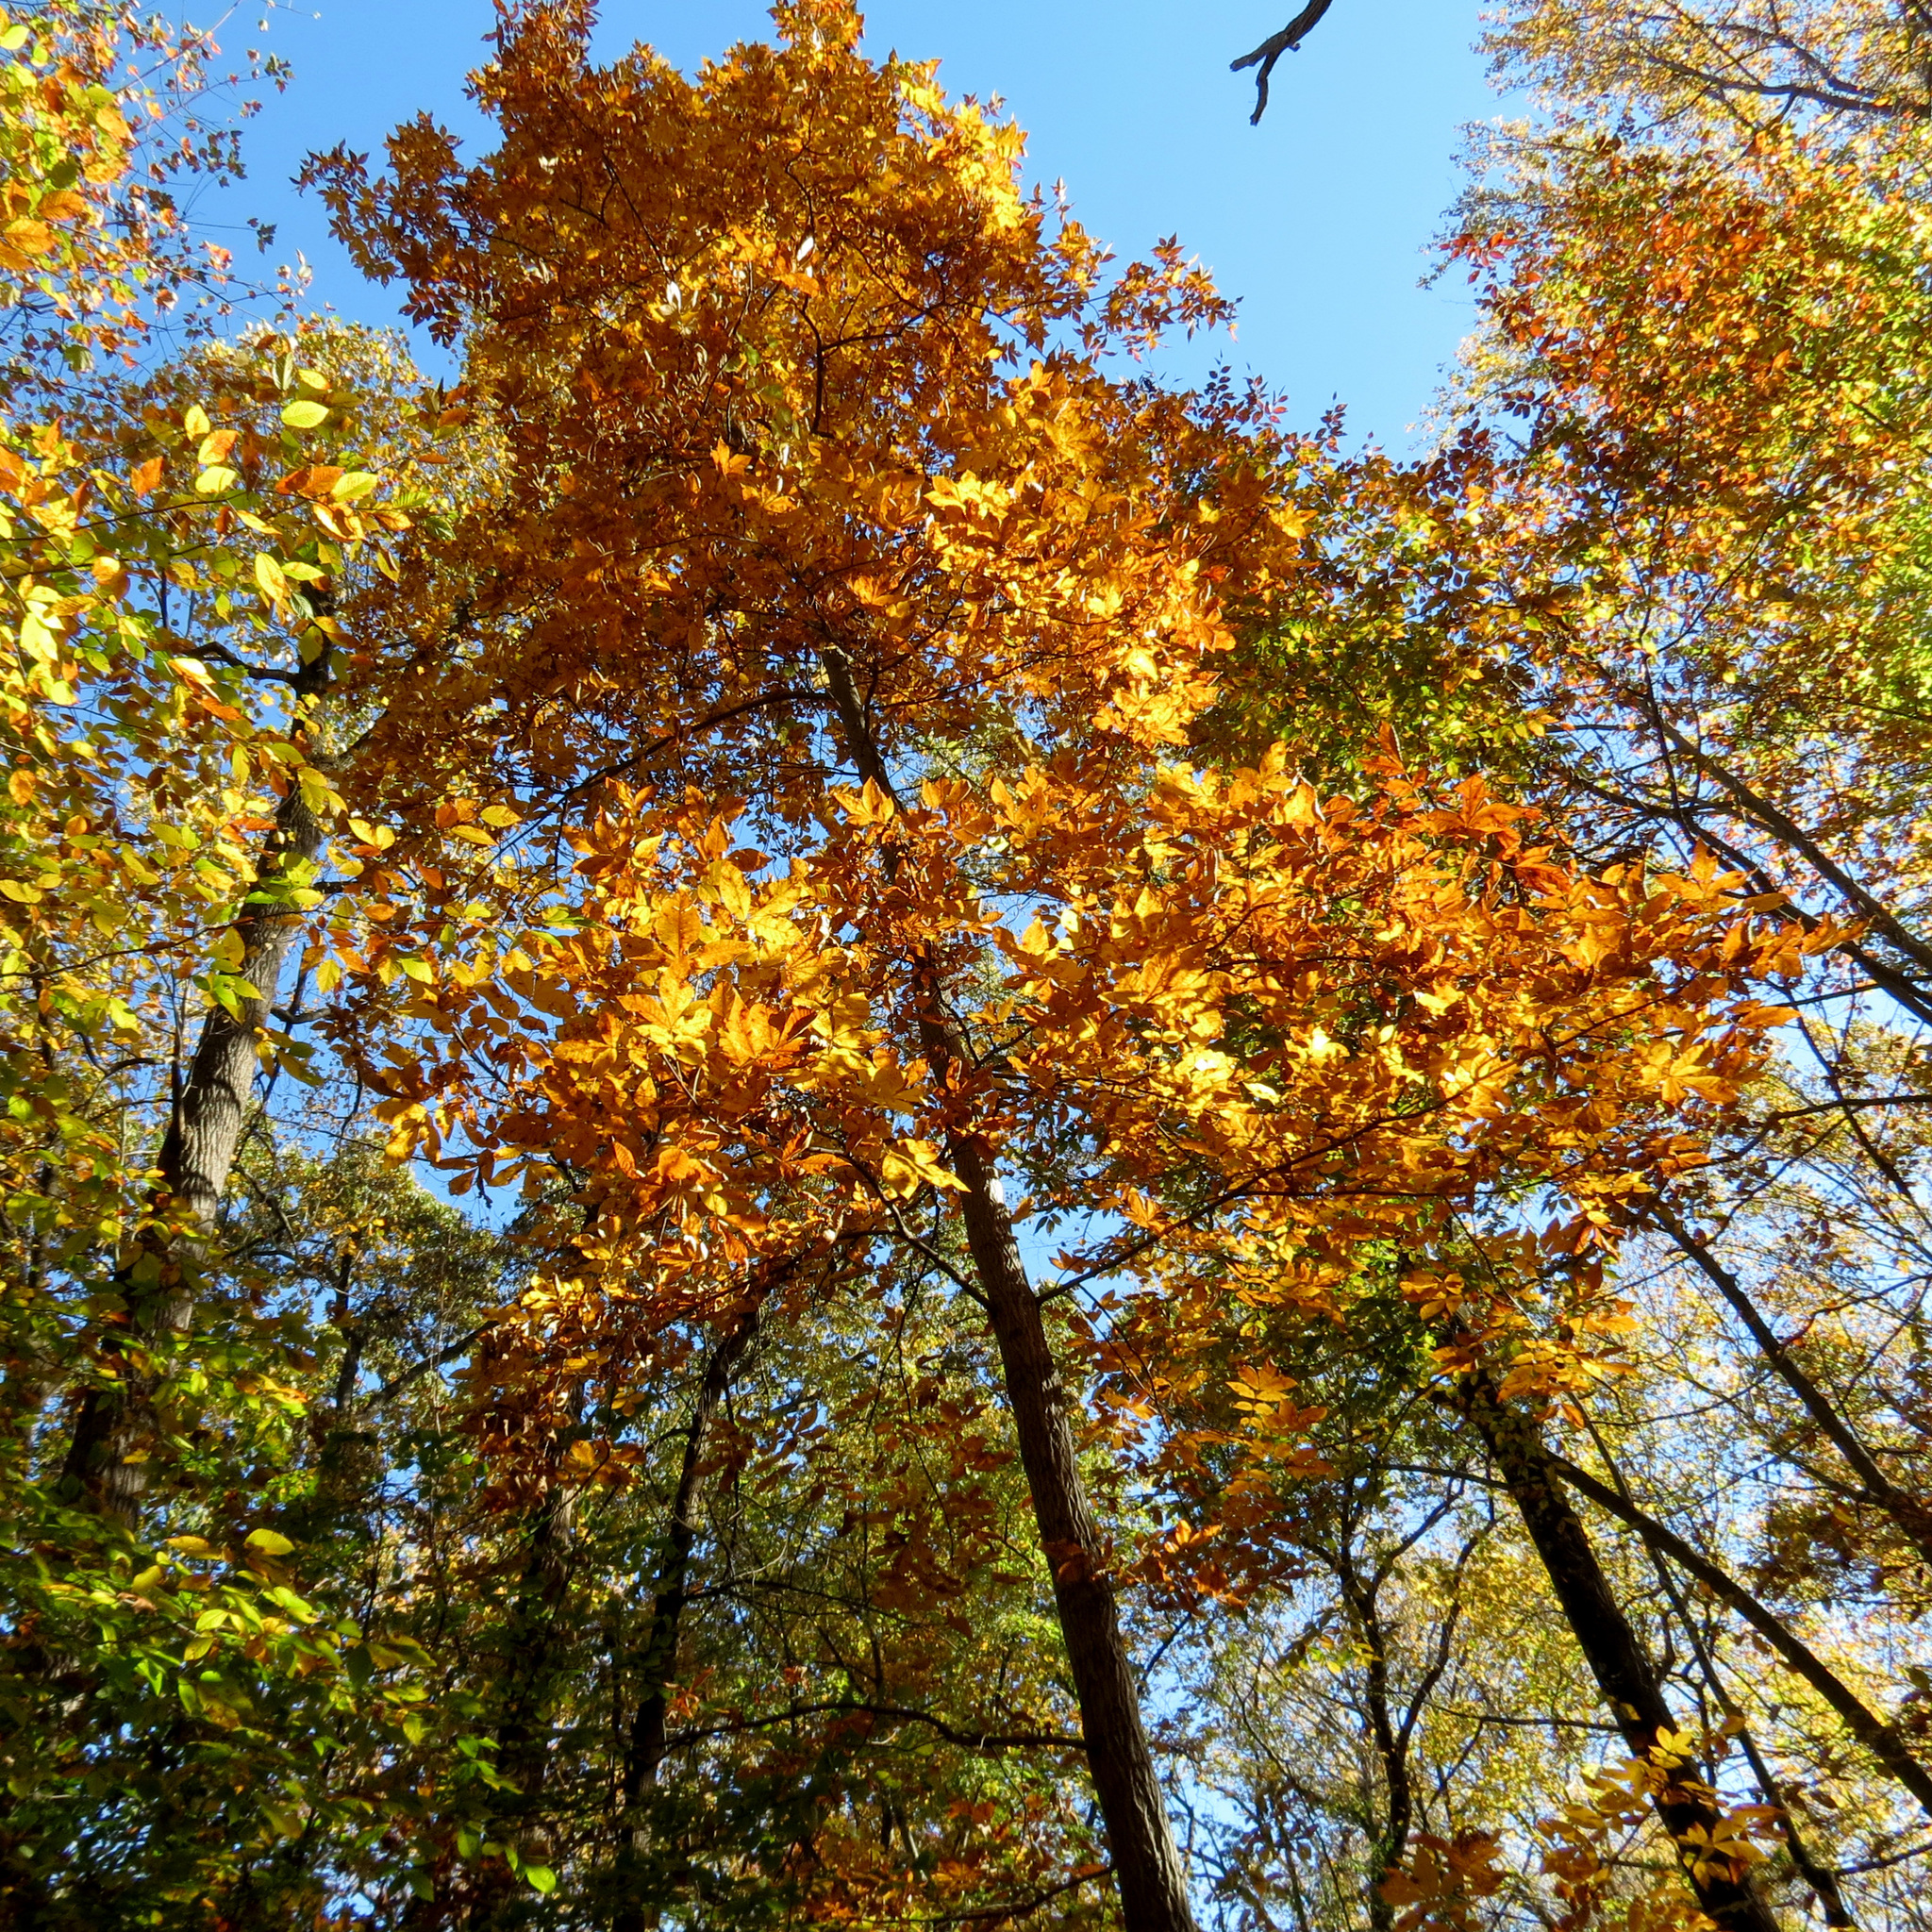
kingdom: Plantae
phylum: Tracheophyta
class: Magnoliopsida
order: Fagales
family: Juglandaceae
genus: Carya
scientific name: Carya alba
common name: Mockernut hickory
